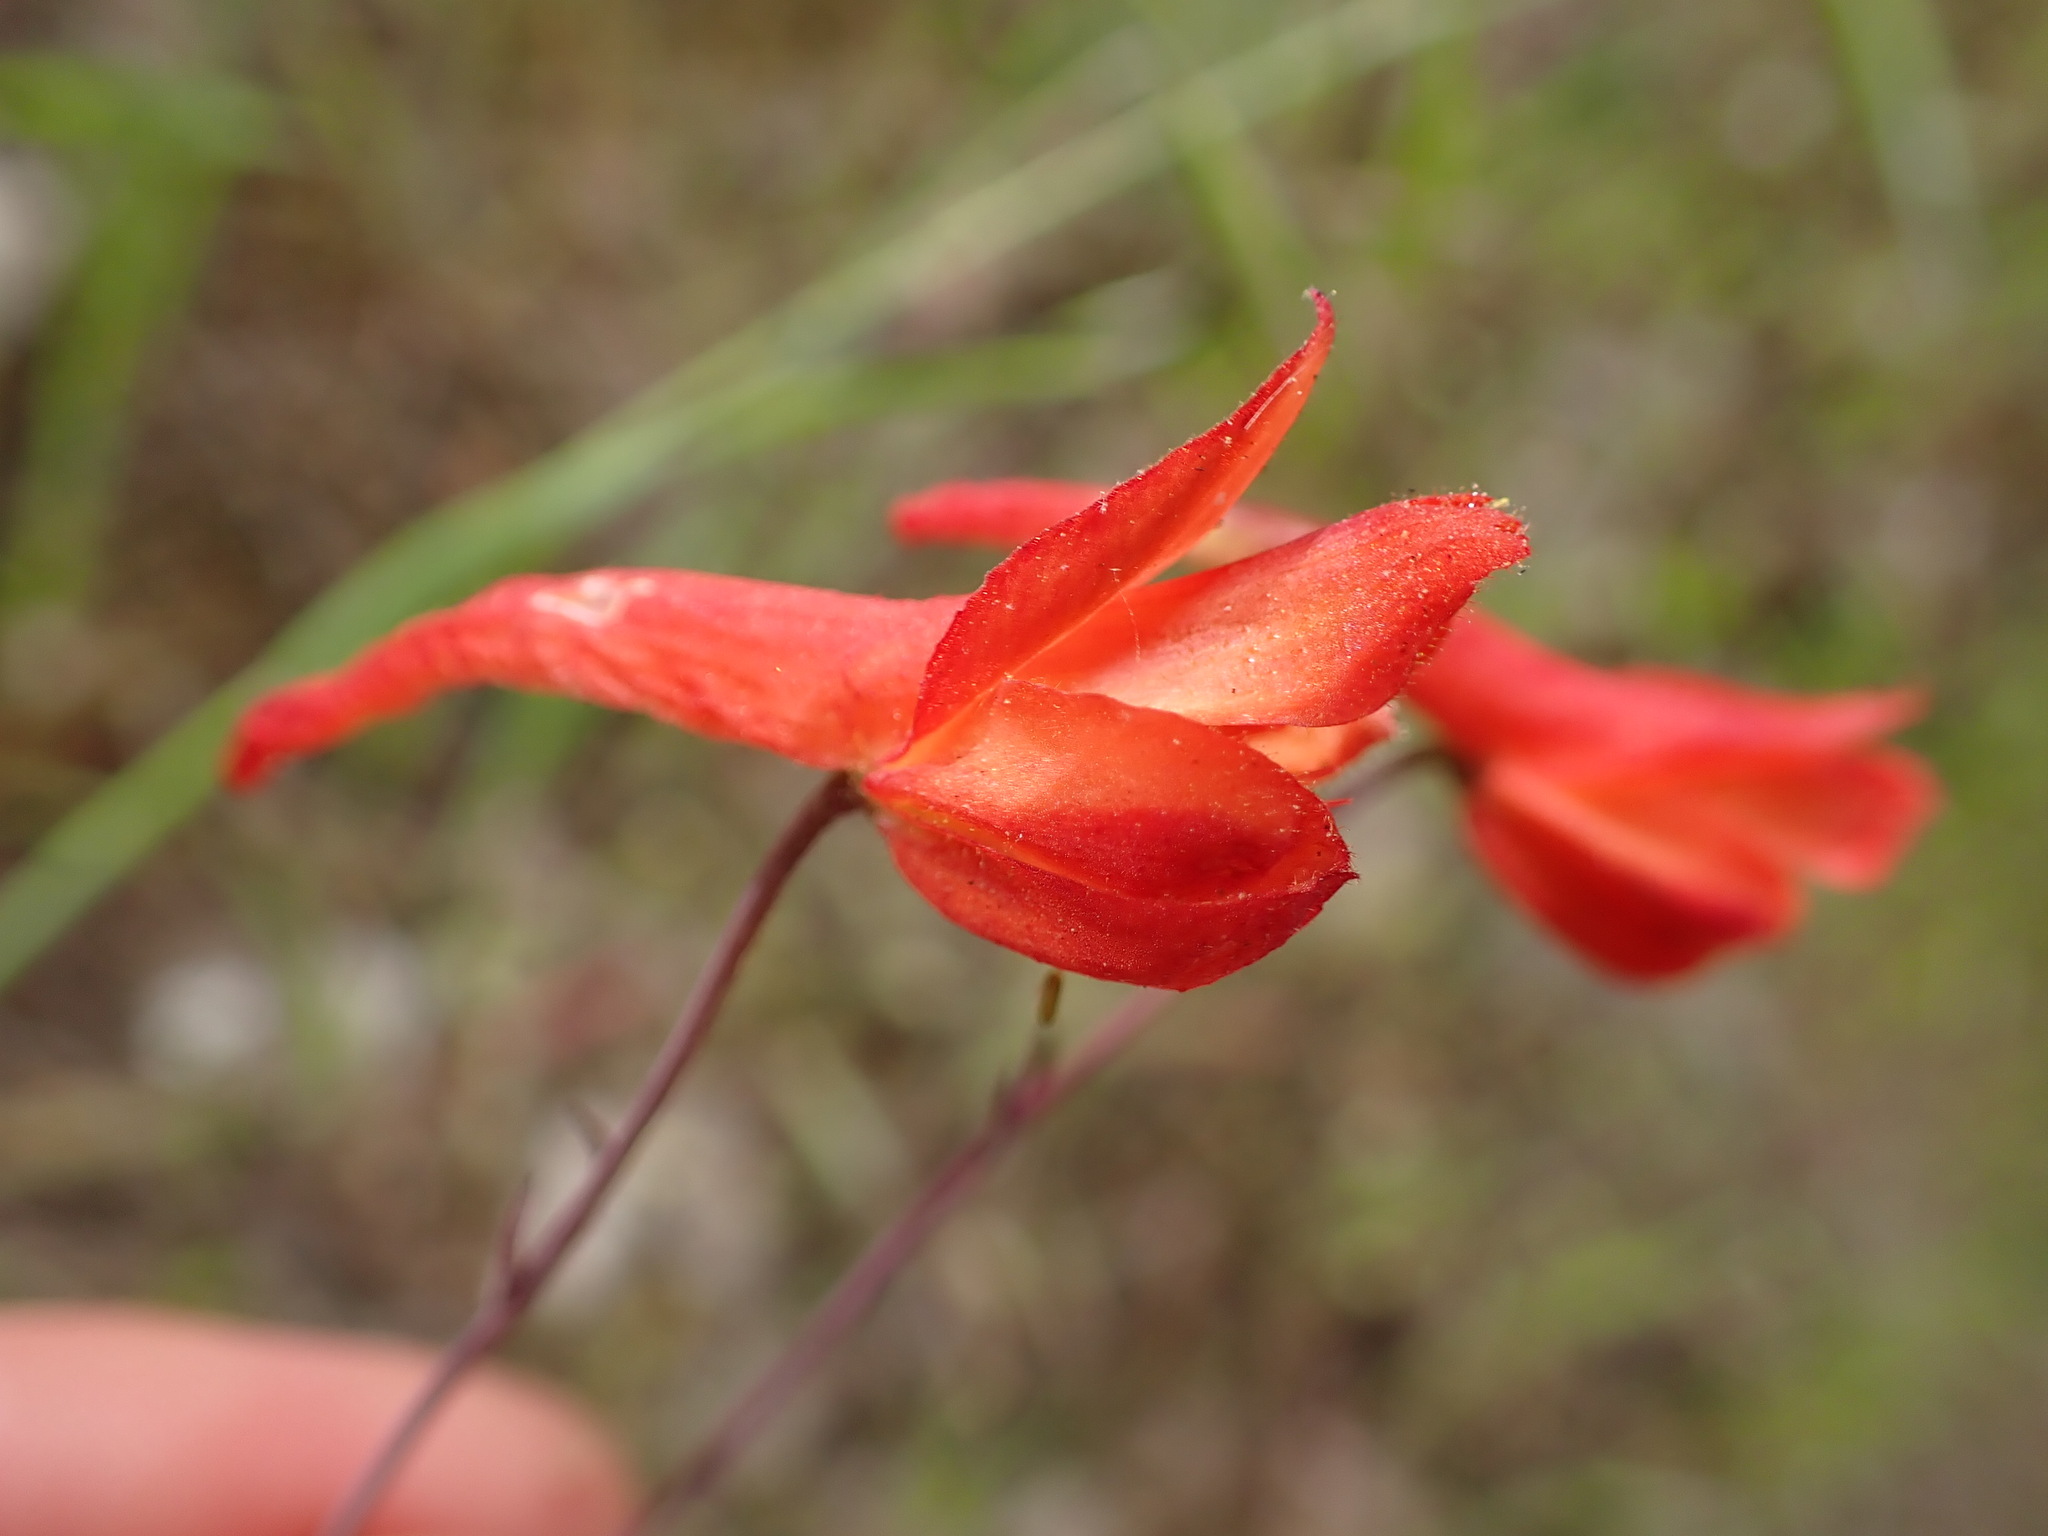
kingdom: Plantae
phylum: Tracheophyta
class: Magnoliopsida
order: Ranunculales
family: Ranunculaceae
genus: Delphinium
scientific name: Delphinium nudicaule
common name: Red larkspur
